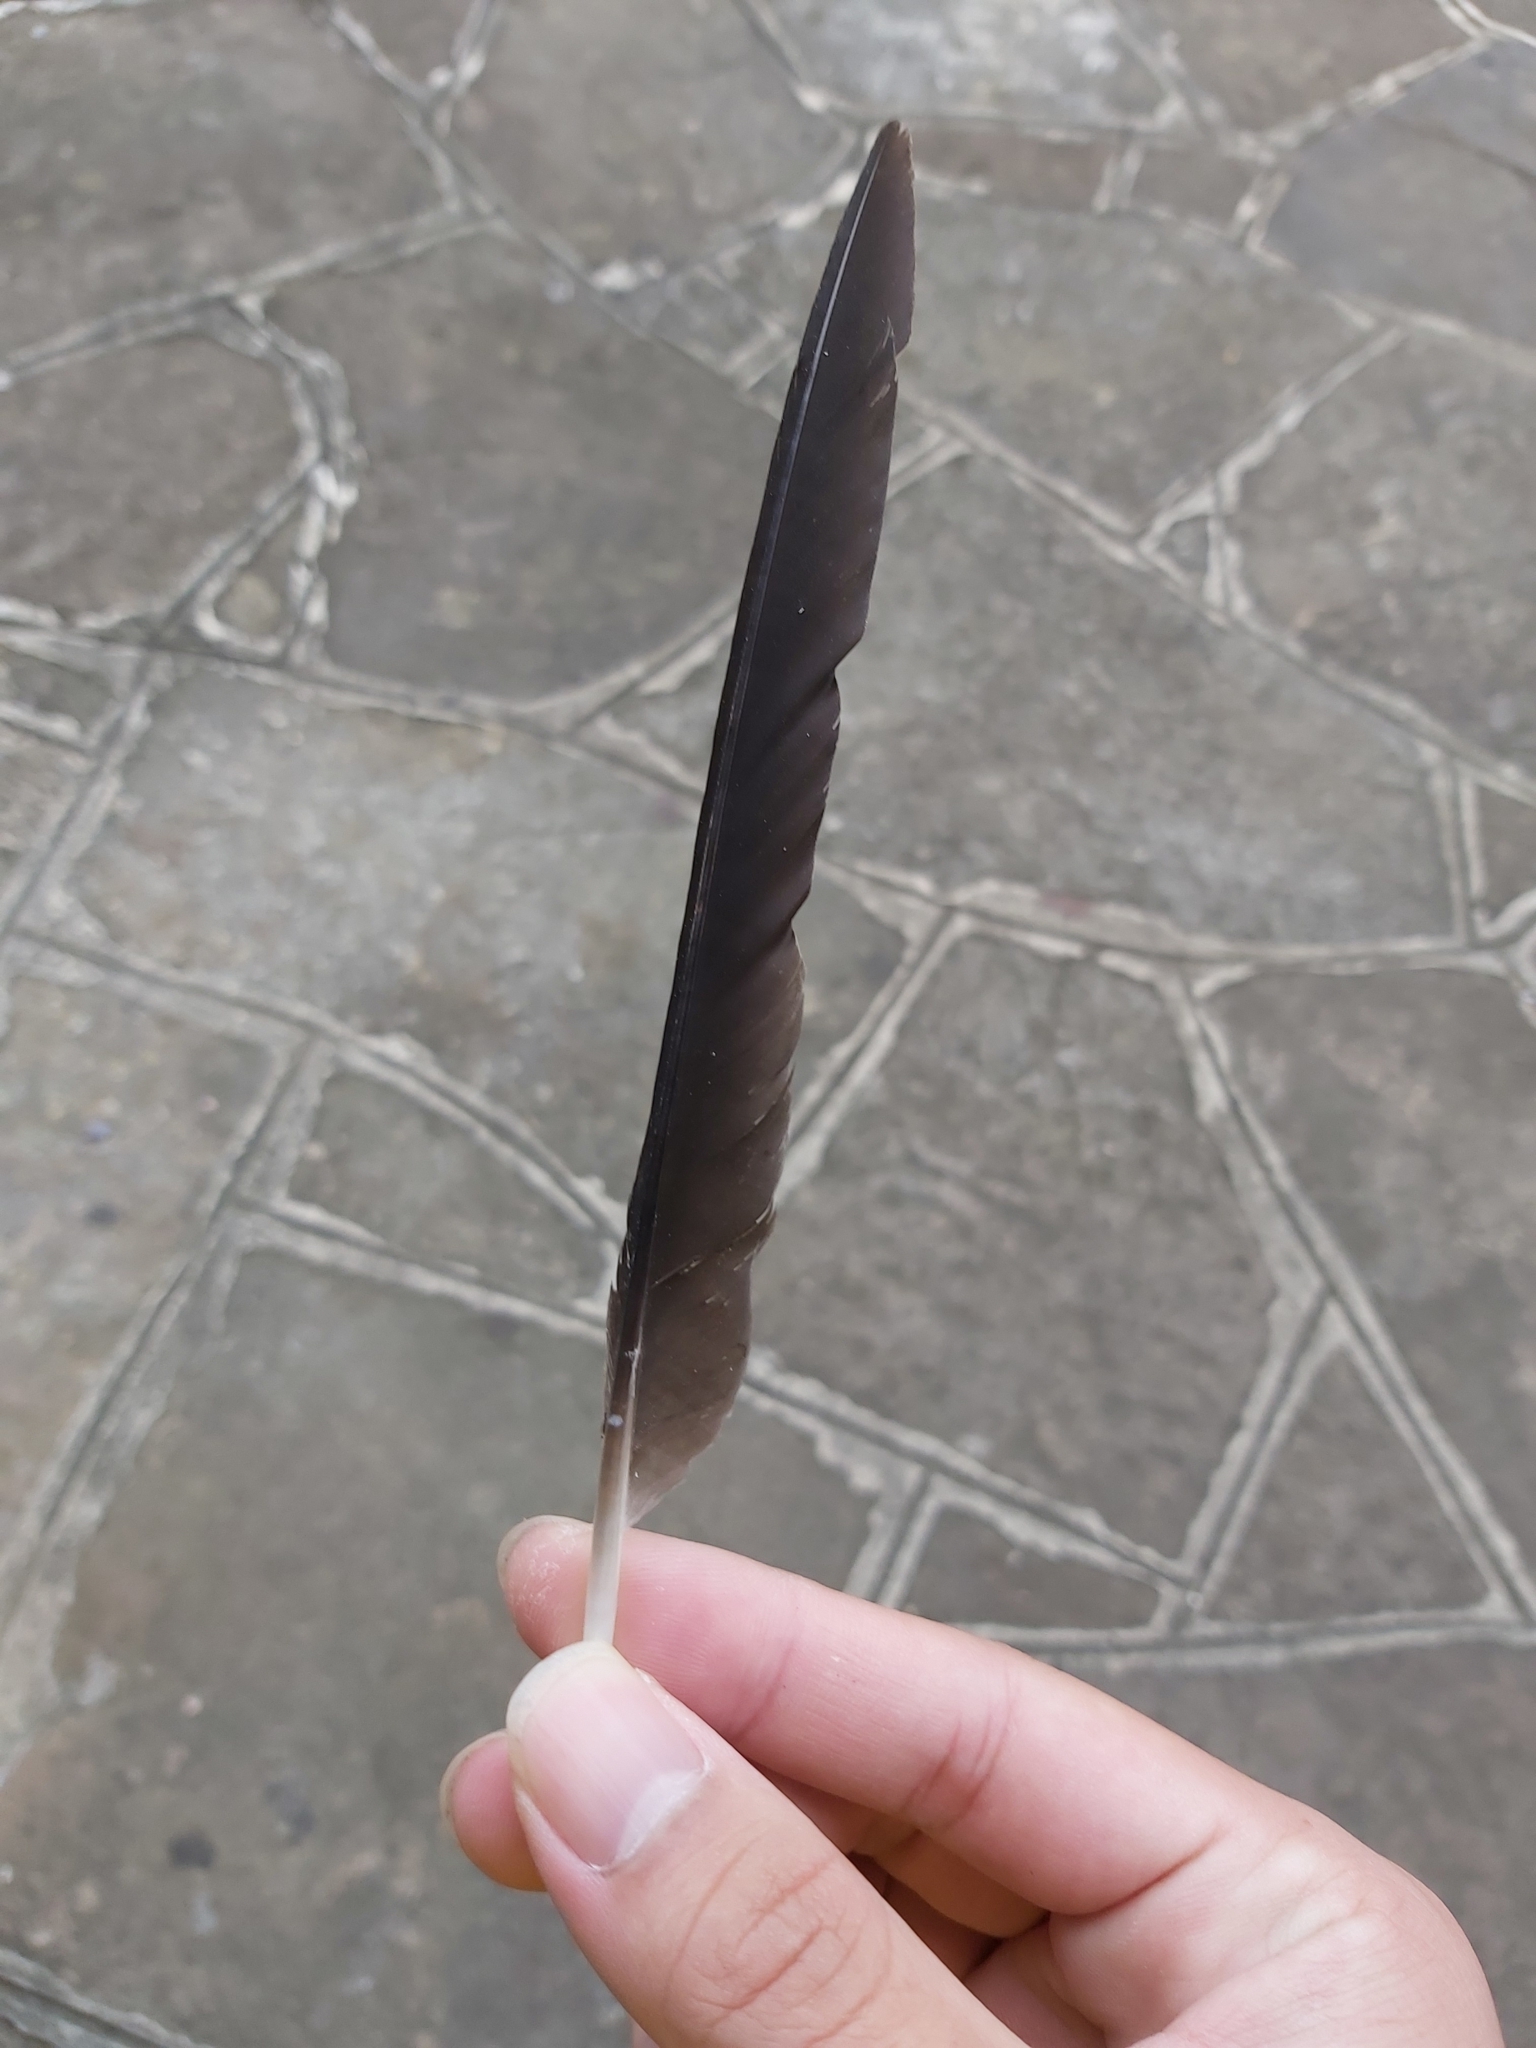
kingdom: Animalia
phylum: Chordata
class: Aves
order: Passeriformes
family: Cracticidae
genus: Gymnorhina
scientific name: Gymnorhina tibicen
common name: Australian magpie
